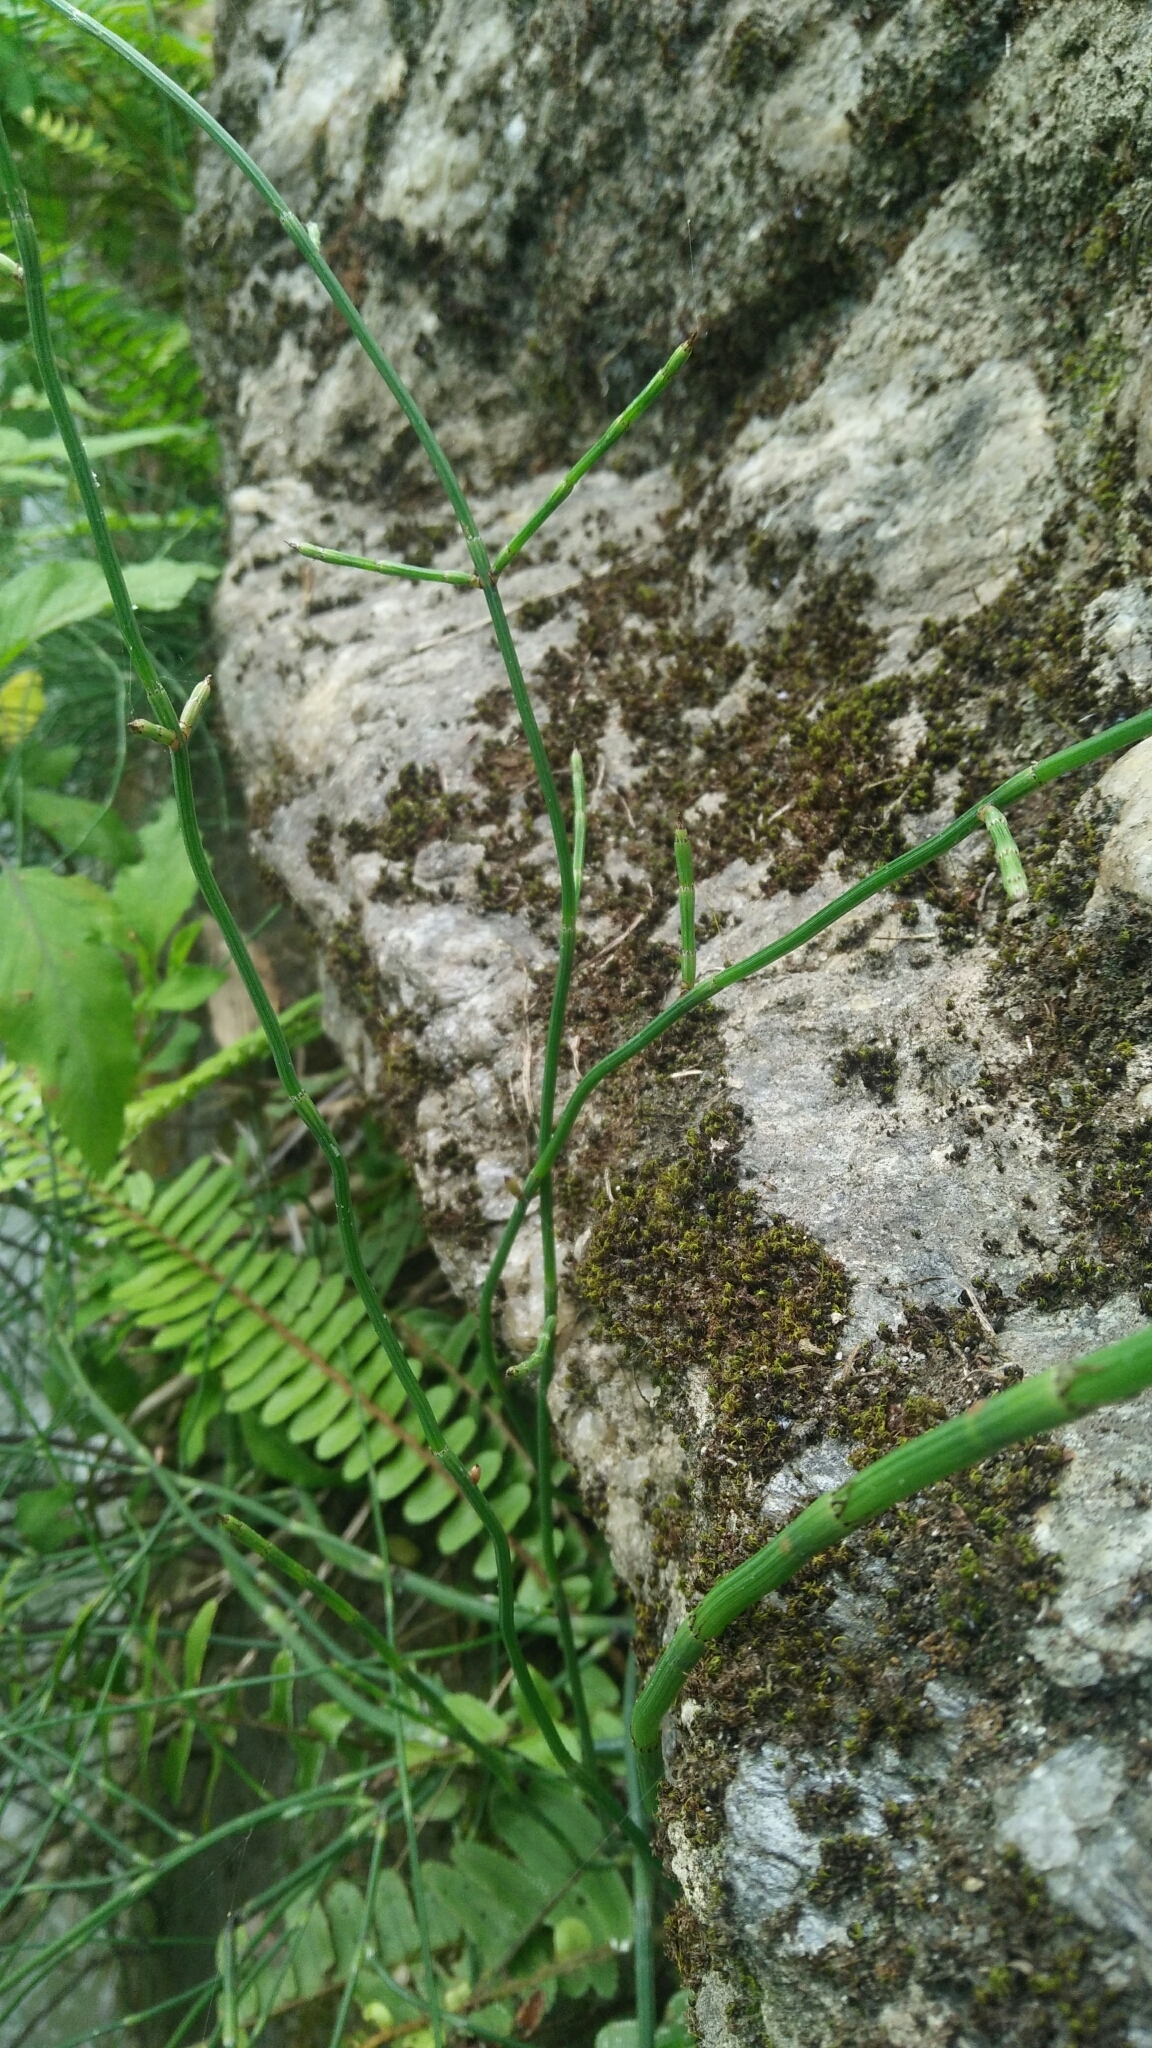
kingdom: Plantae
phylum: Tracheophyta
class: Polypodiopsida
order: Equisetales
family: Equisetaceae
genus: Equisetum
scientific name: Equisetum ramosissimum
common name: Branched horsetail
